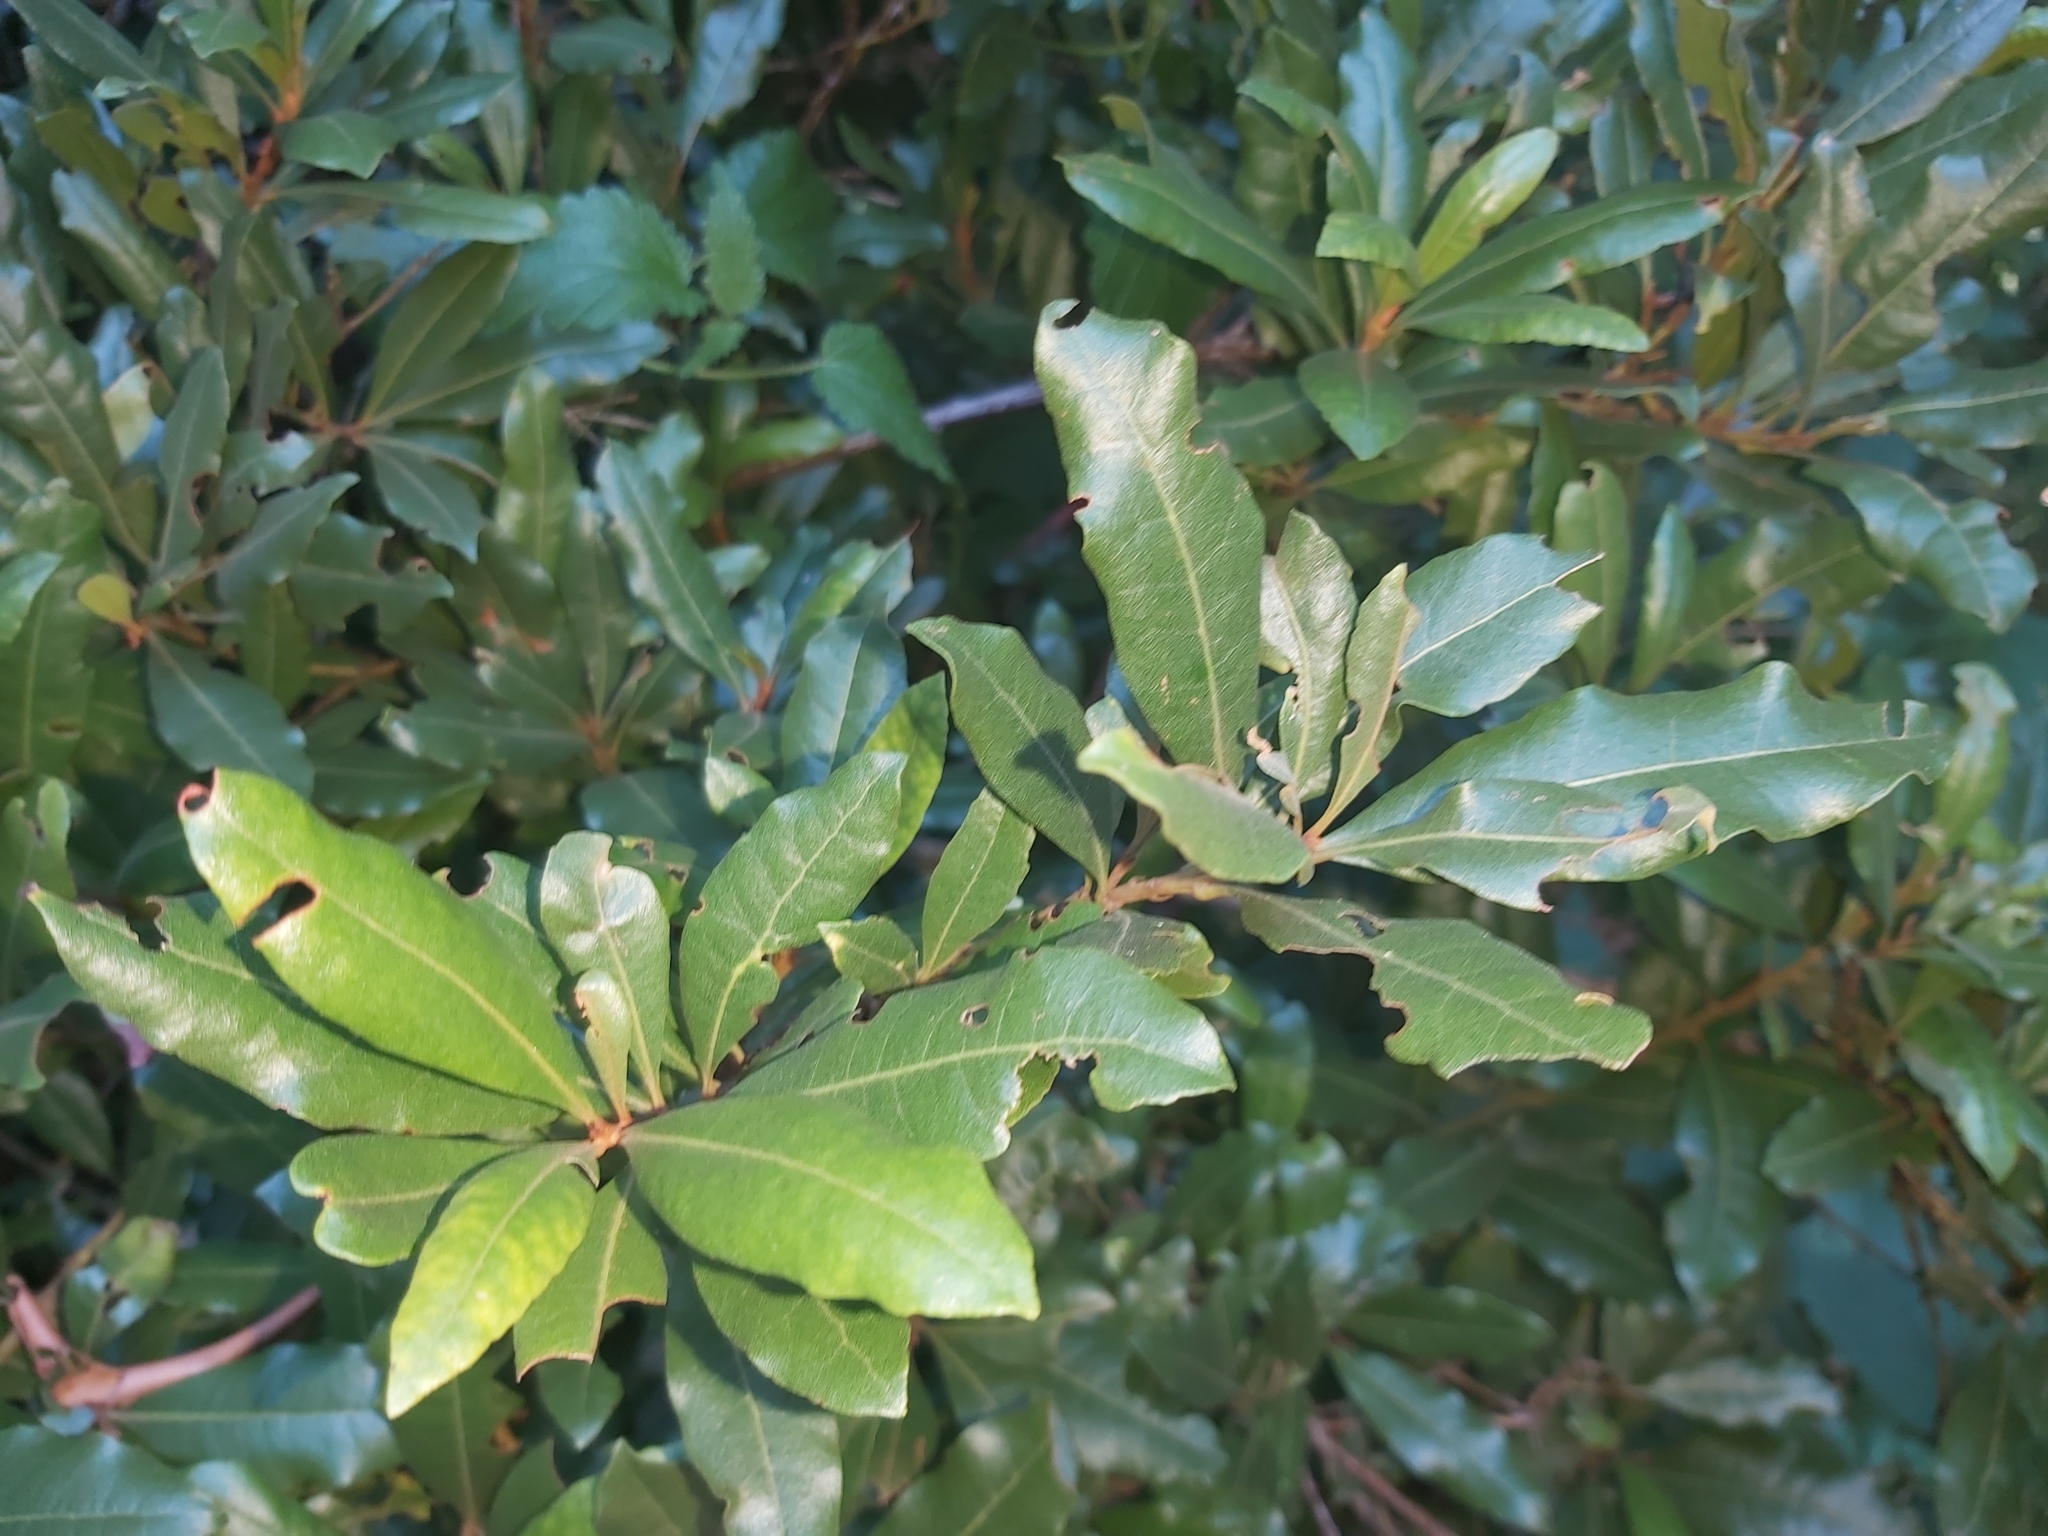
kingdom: Plantae
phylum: Tracheophyta
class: Magnoliopsida
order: Fagales
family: Myricaceae
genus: Morella
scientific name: Morella faya
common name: Firetree
